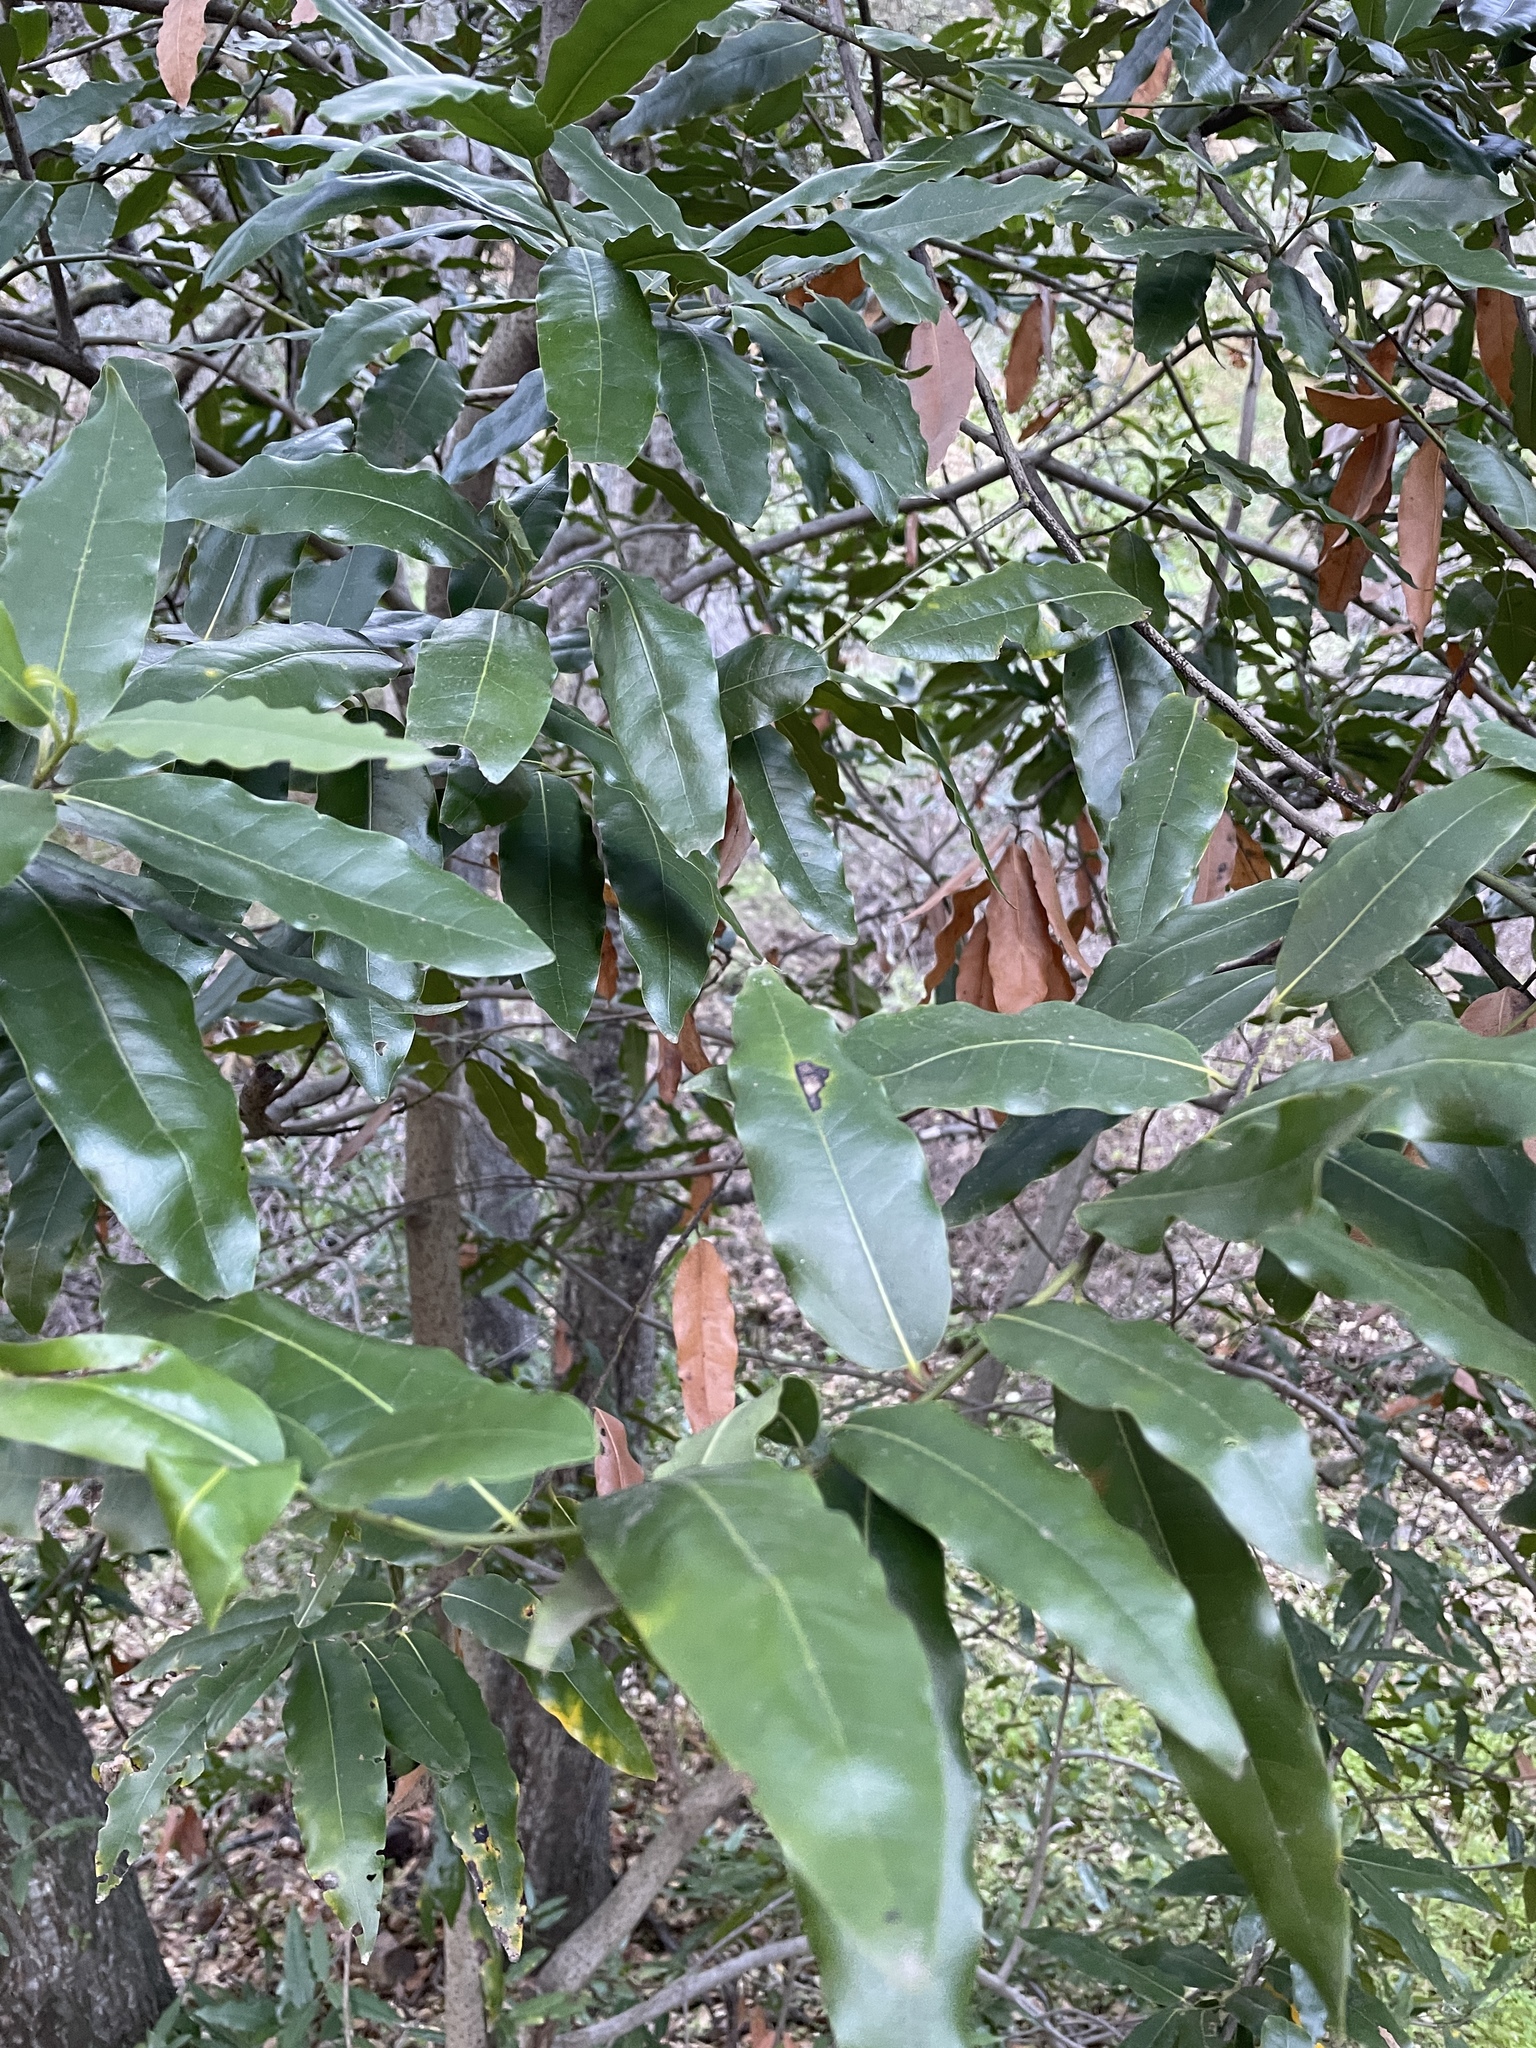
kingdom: Plantae
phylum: Tracheophyta
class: Magnoliopsida
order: Laurales
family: Lauraceae
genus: Umbellularia
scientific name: Umbellularia californica
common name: California bay
